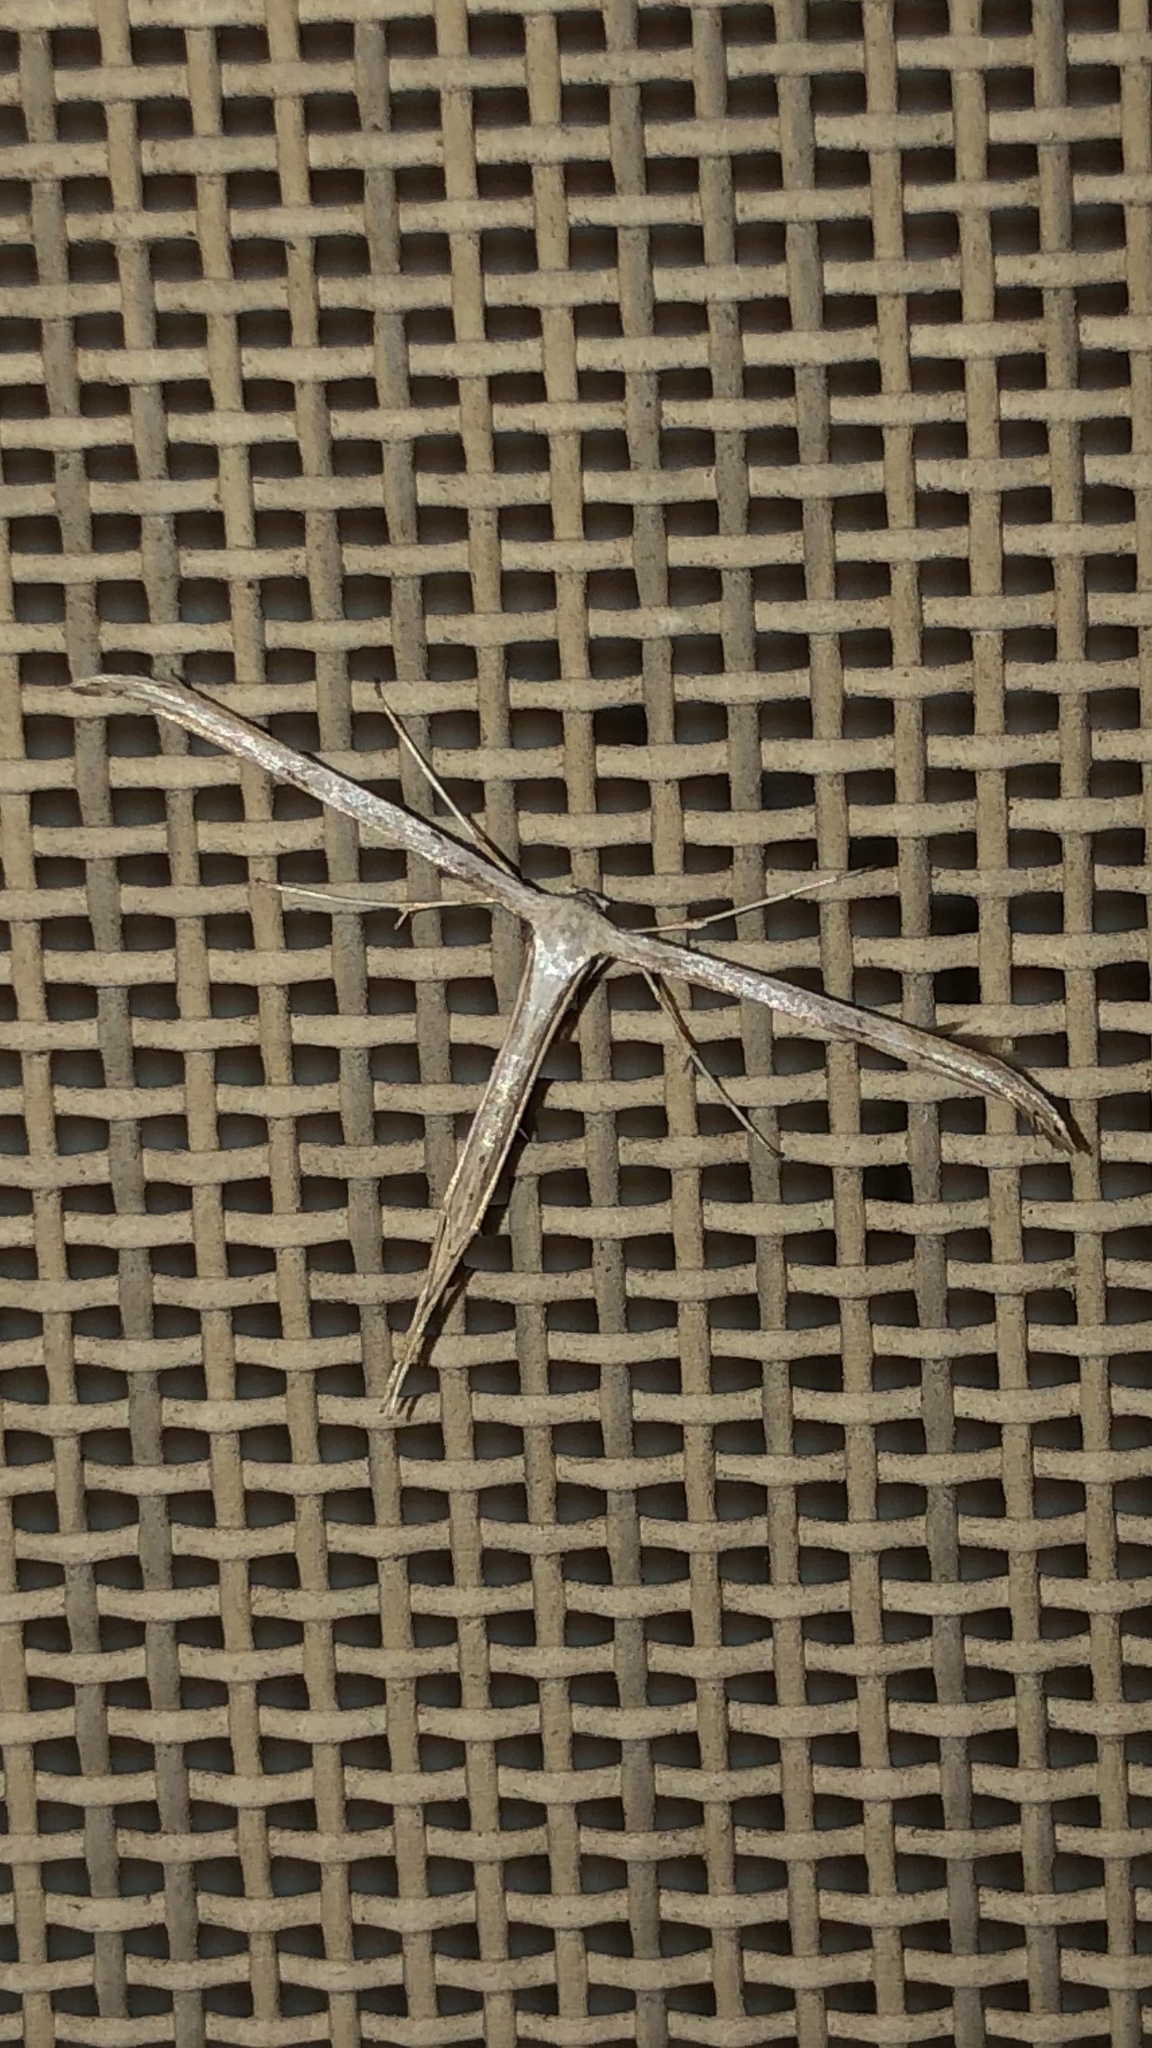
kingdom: Animalia
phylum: Arthropoda
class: Insecta
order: Lepidoptera
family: Pterophoridae
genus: Emmelina
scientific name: Emmelina monodactyla
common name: Common plume
